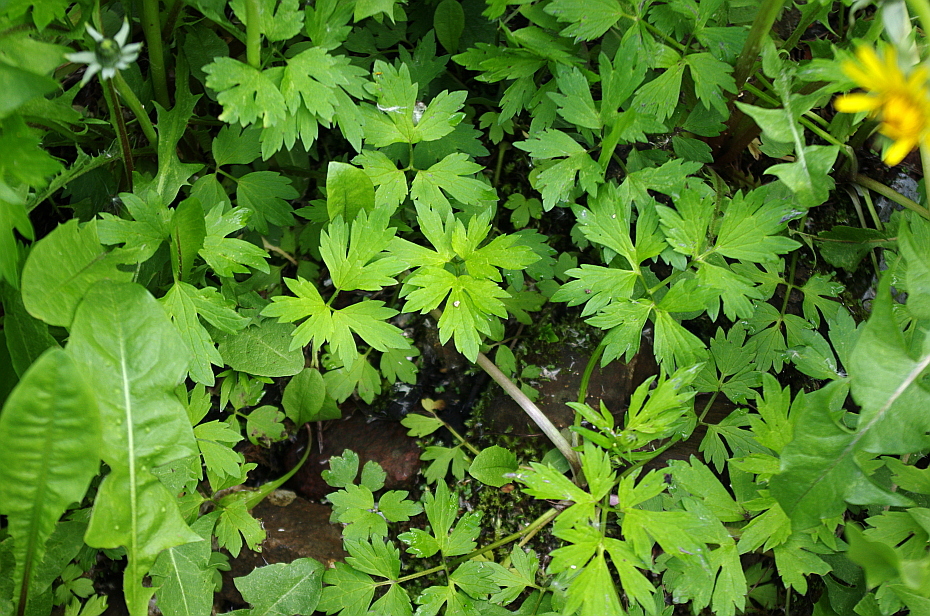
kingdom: Plantae
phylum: Tracheophyta
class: Magnoliopsida
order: Ranunculales
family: Ranunculaceae
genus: Ranunculus
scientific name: Ranunculus repens
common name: Creeping buttercup
